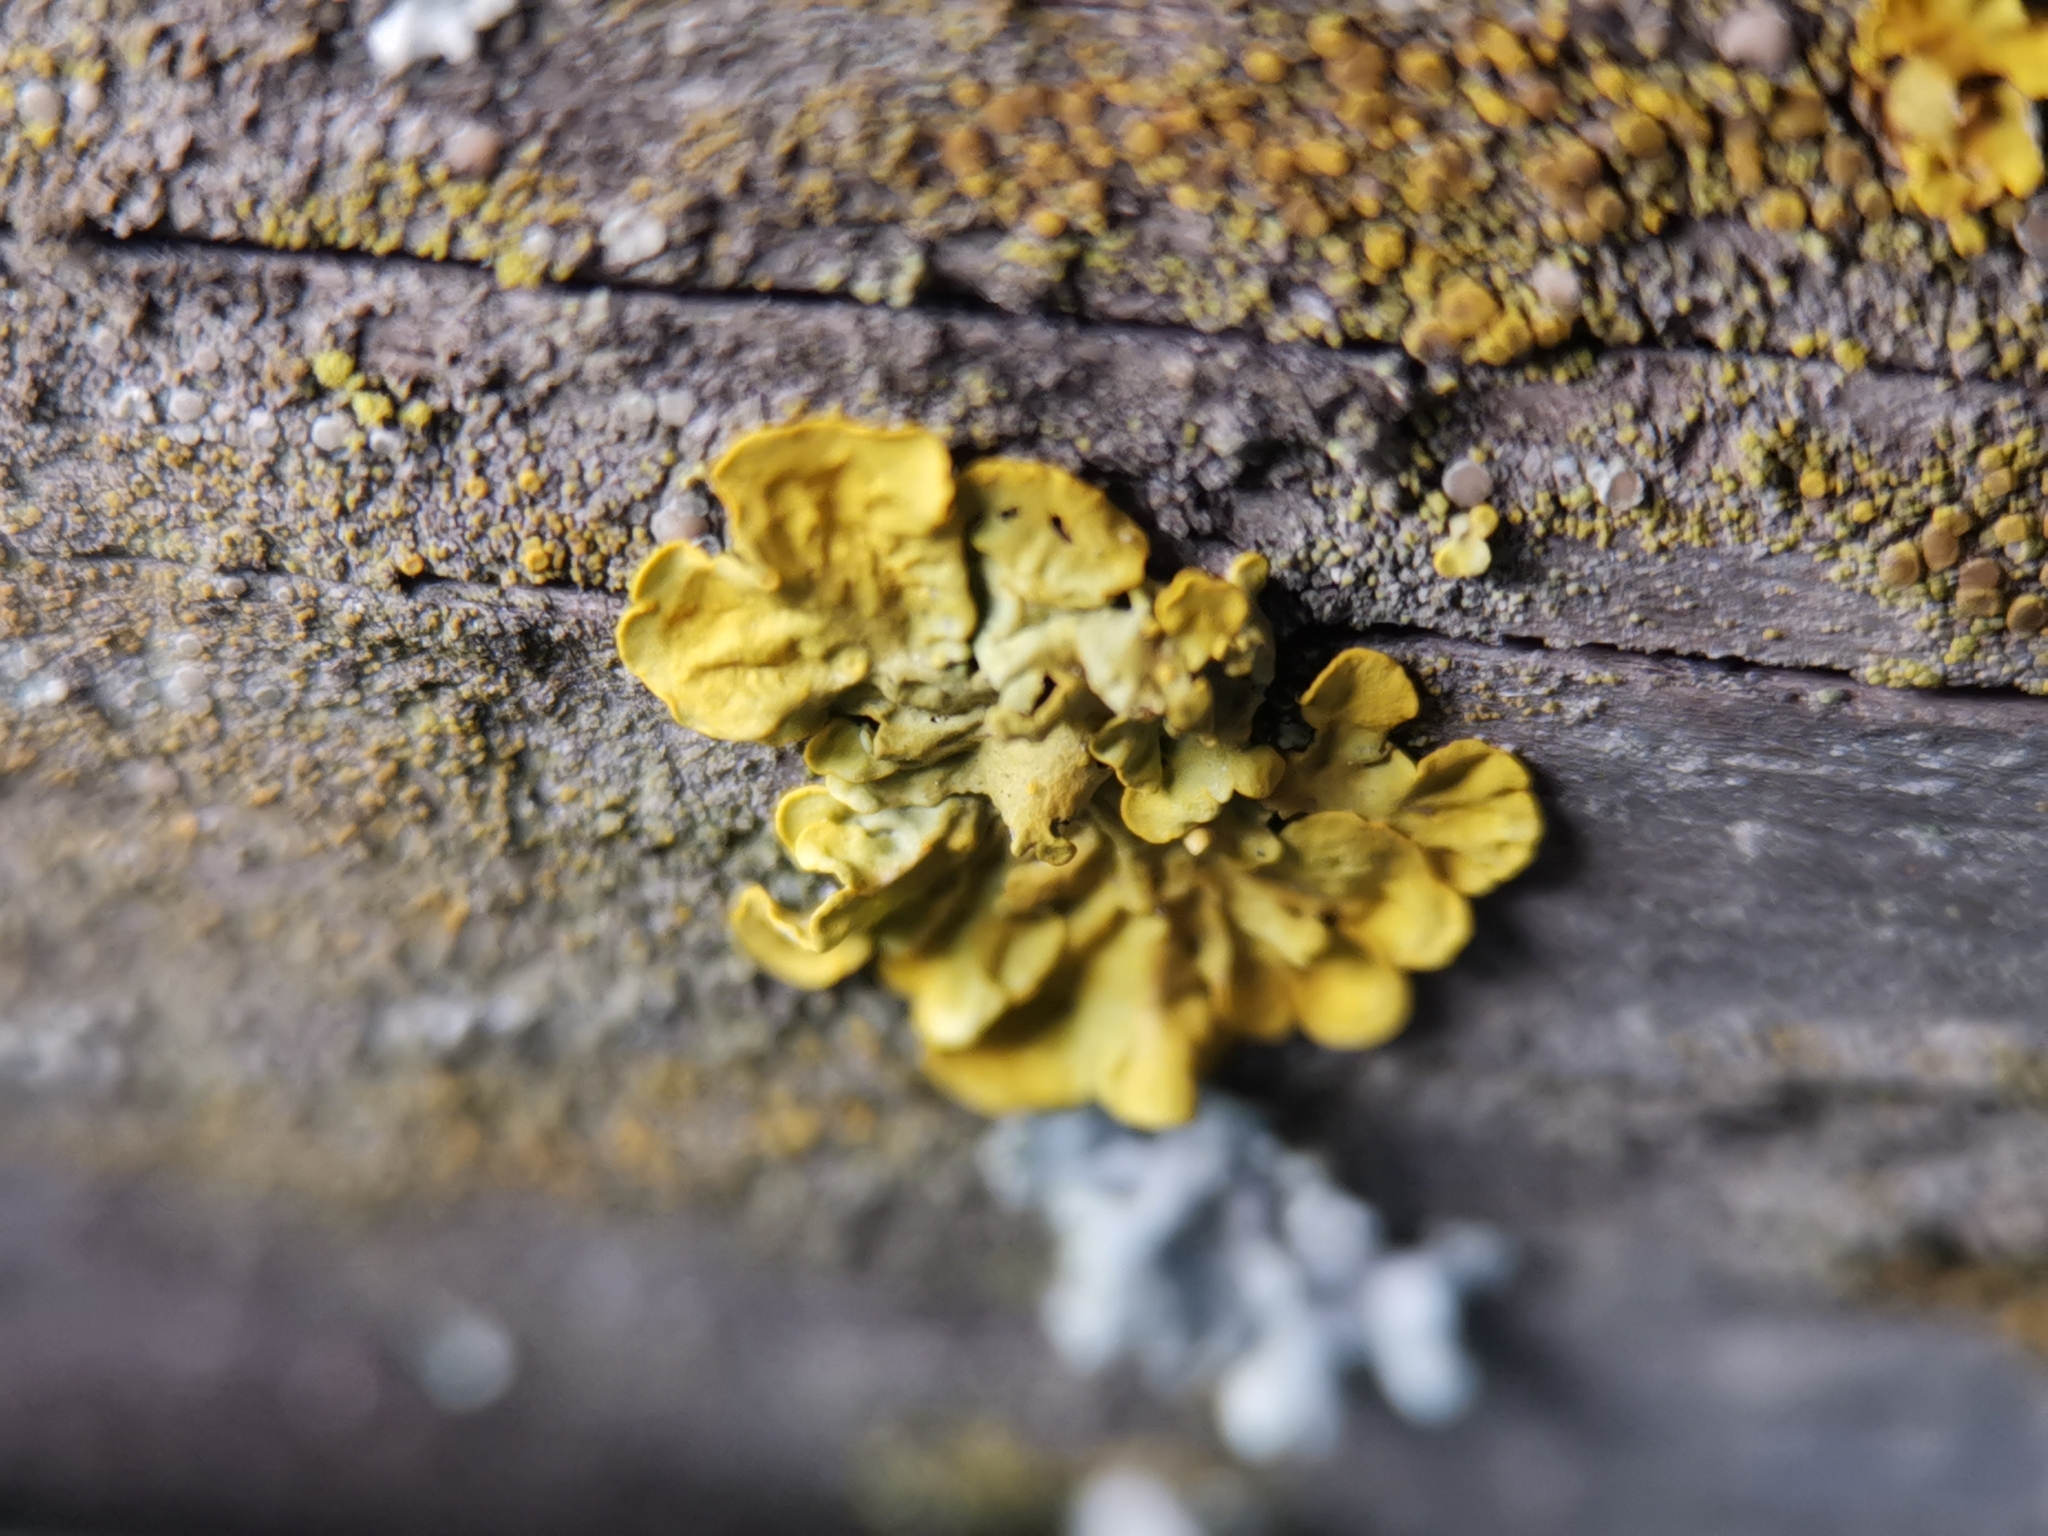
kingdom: Fungi
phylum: Ascomycota
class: Lecanoromycetes
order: Teloschistales
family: Teloschistaceae
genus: Xanthoria
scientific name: Xanthoria parietina
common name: Common orange lichen
